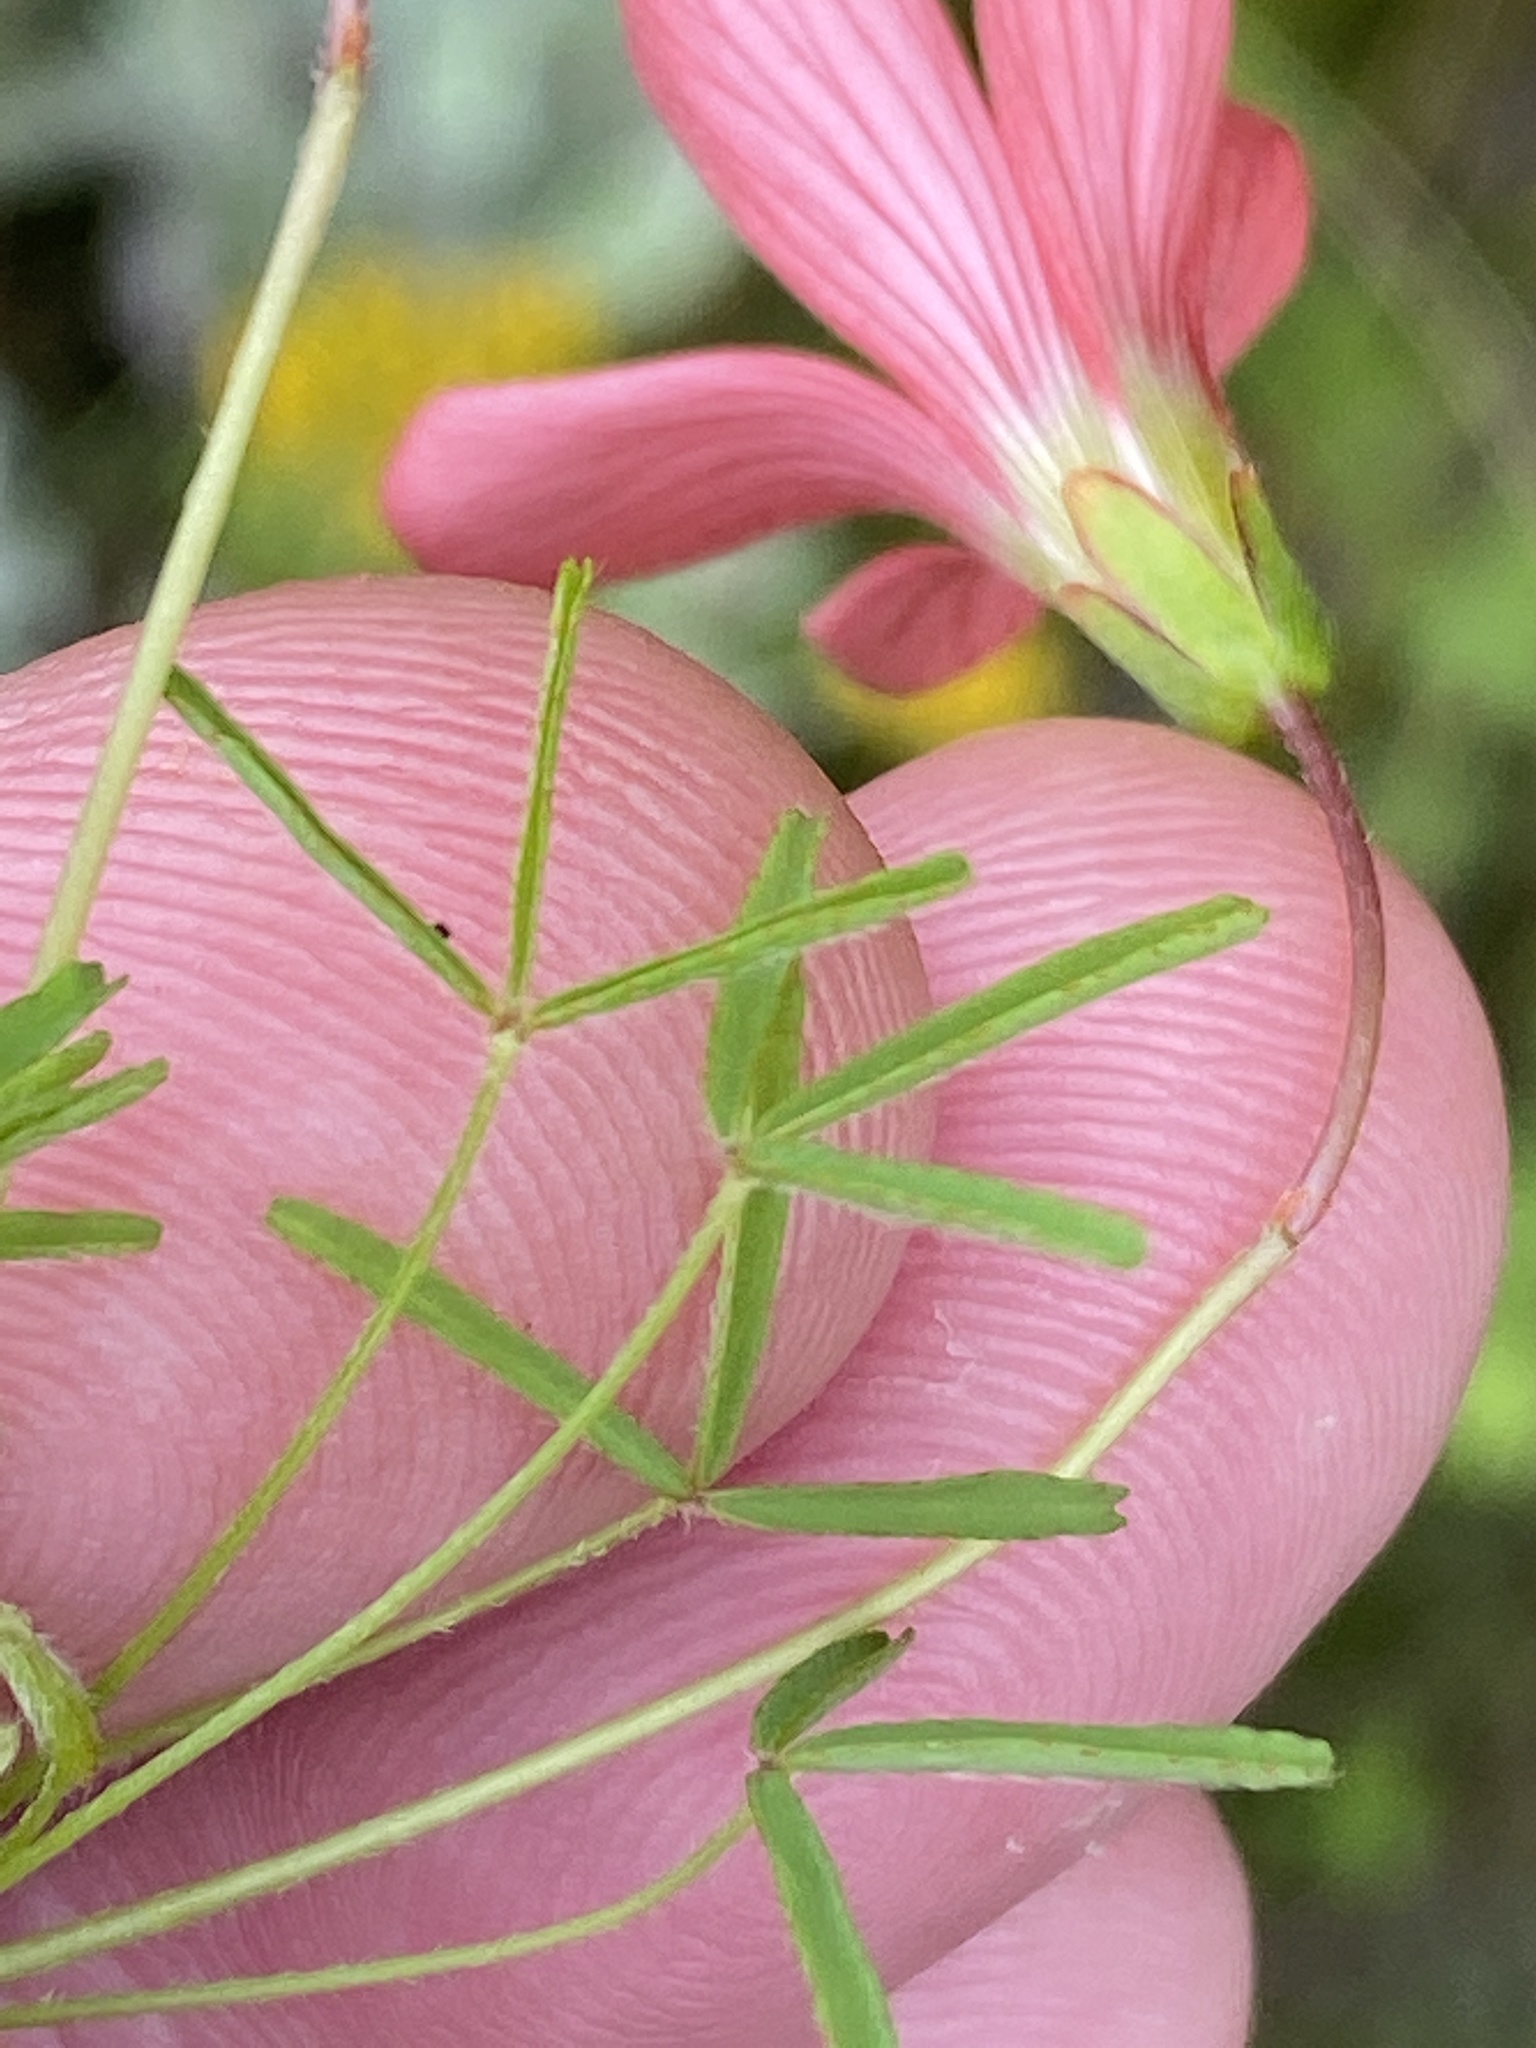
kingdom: Plantae
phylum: Tracheophyta
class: Magnoliopsida
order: Oxalidales
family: Oxalidaceae
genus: Oxalis
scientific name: Oxalis pendulifolia
